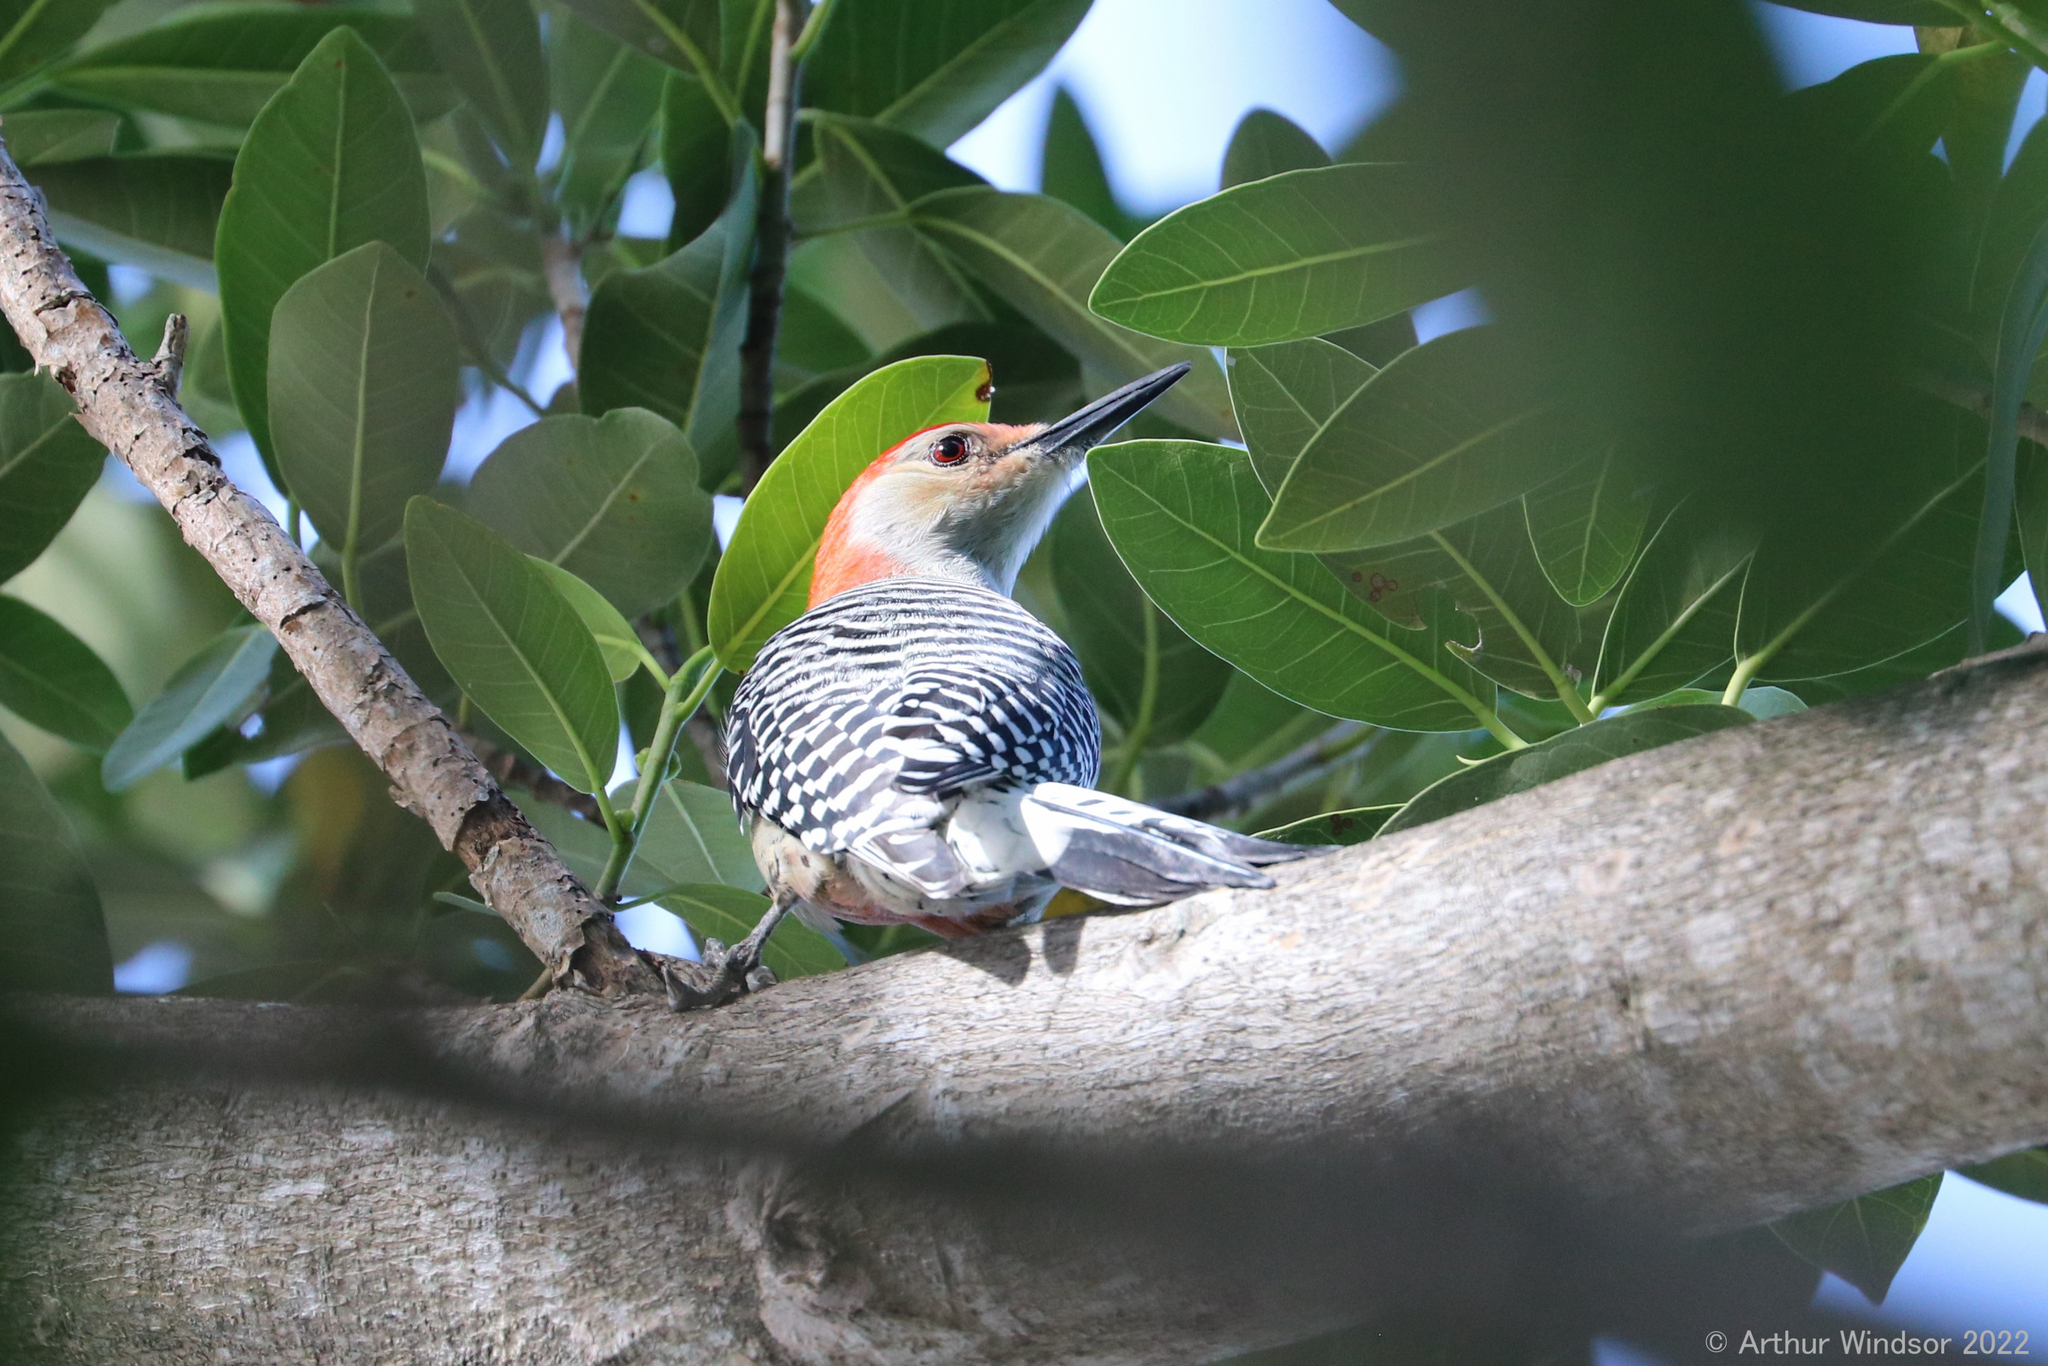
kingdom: Animalia
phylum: Chordata
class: Aves
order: Piciformes
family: Picidae
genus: Melanerpes
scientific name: Melanerpes carolinus
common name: Red-bellied woodpecker
